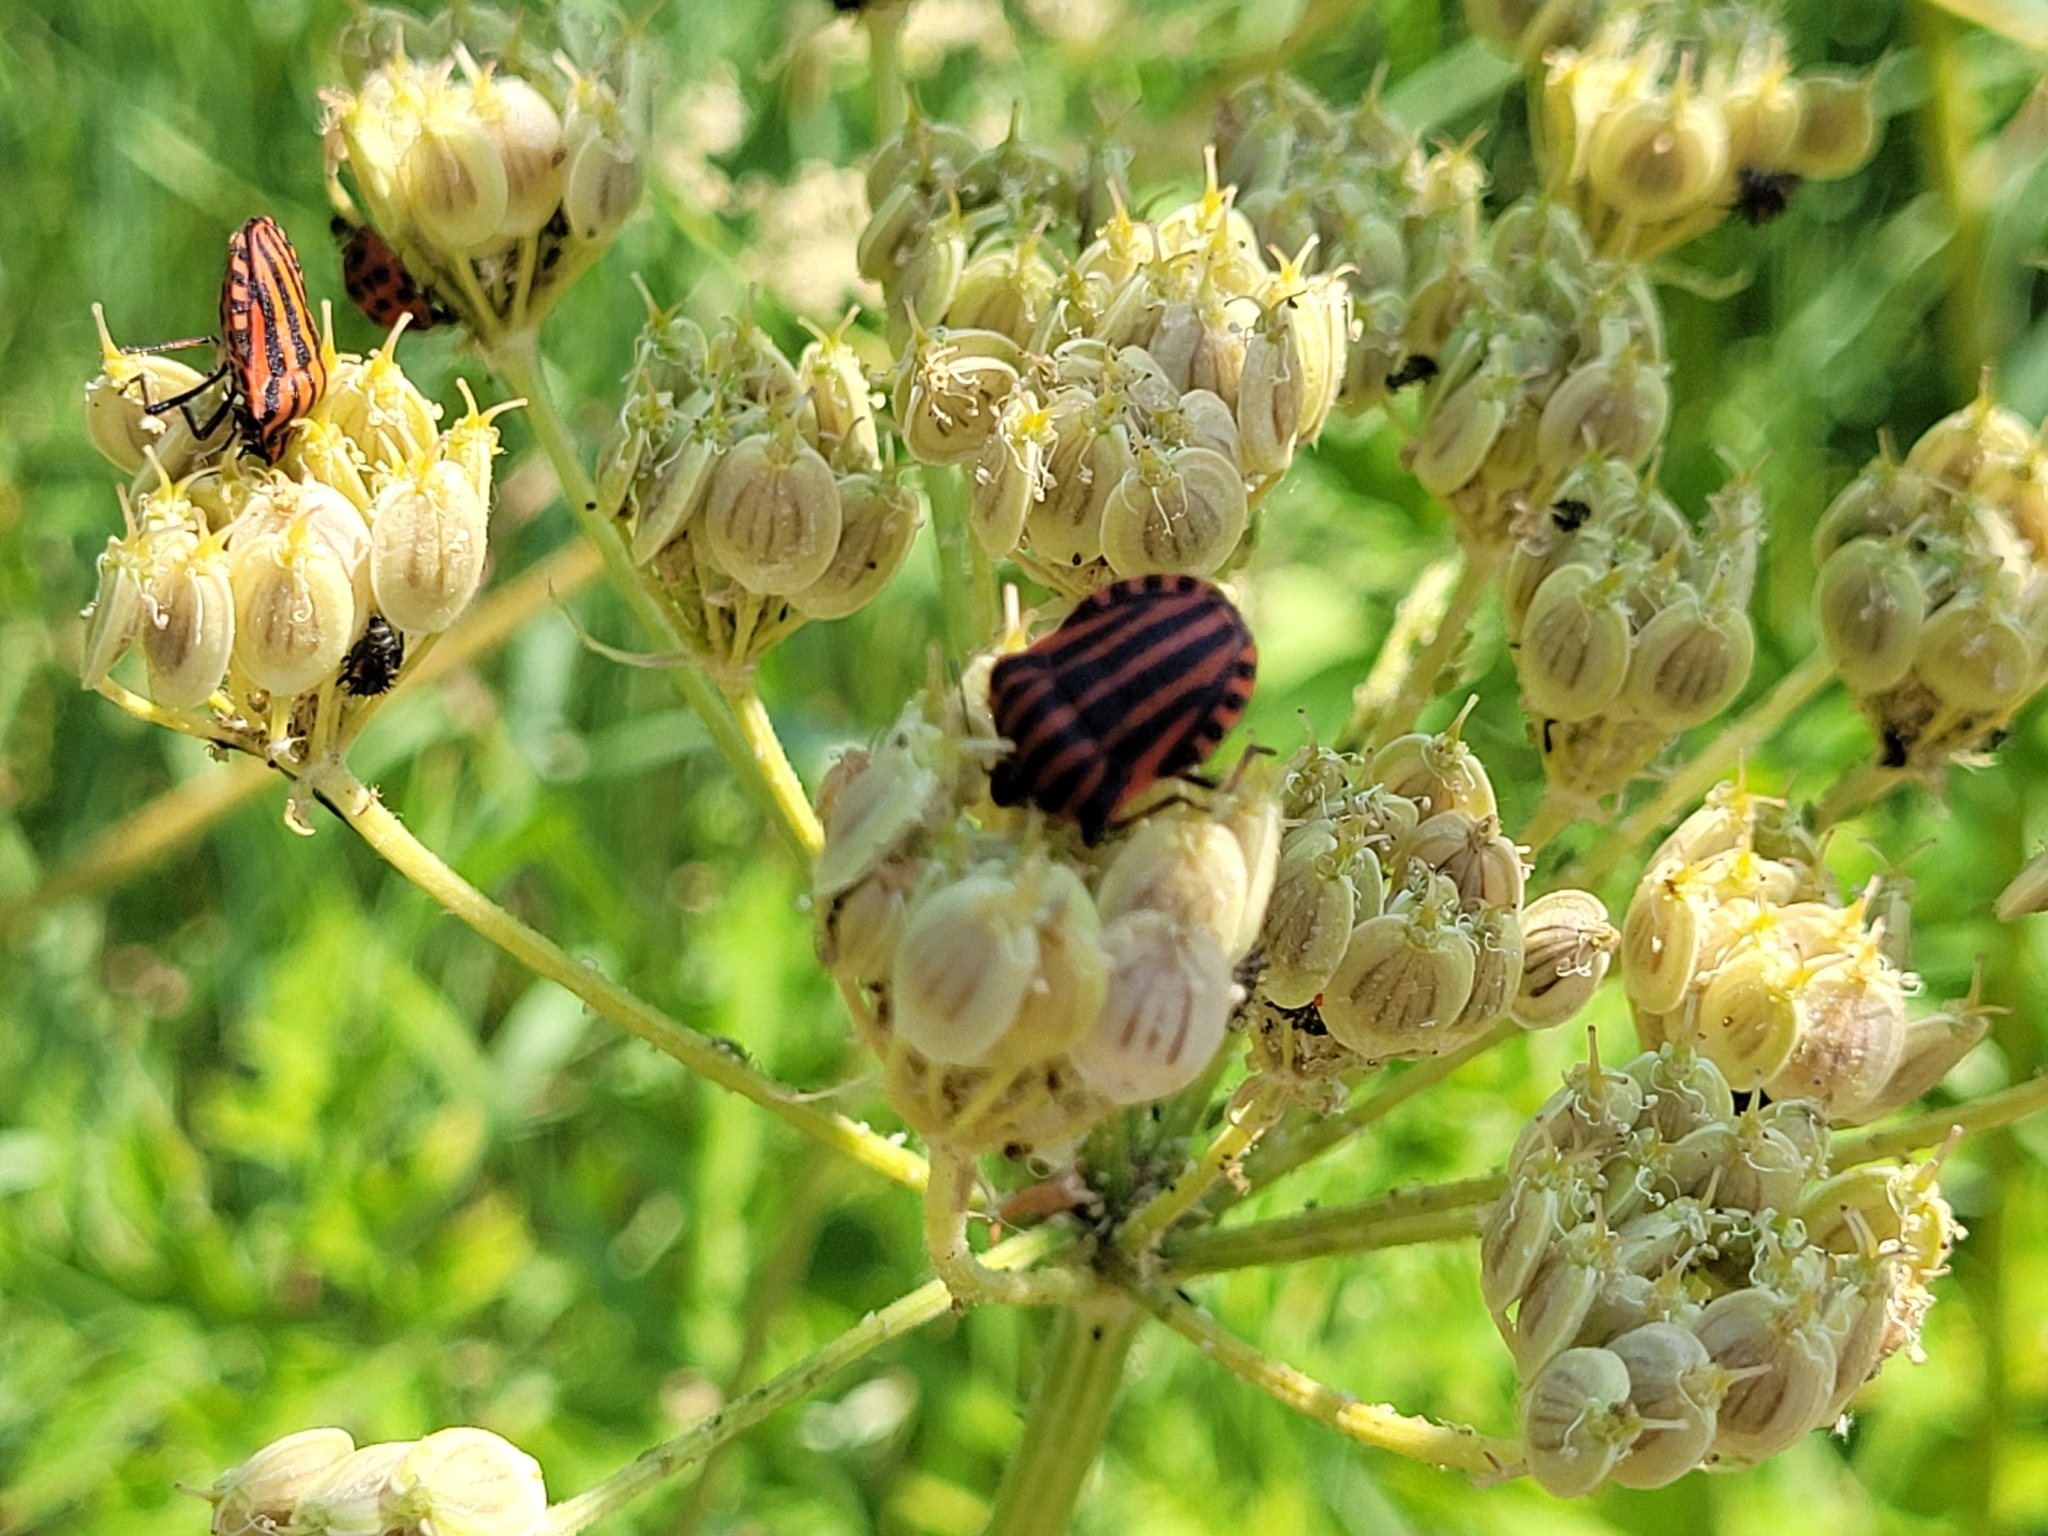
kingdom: Animalia
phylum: Arthropoda
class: Insecta
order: Hemiptera
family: Pentatomidae
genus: Graphosoma
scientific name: Graphosoma italicum
